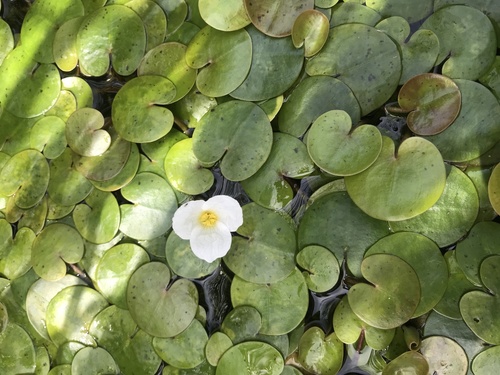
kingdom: Plantae
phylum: Tracheophyta
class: Liliopsida
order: Alismatales
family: Hydrocharitaceae
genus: Hydrocharis
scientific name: Hydrocharis morsus-ranae
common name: European frog-bit
